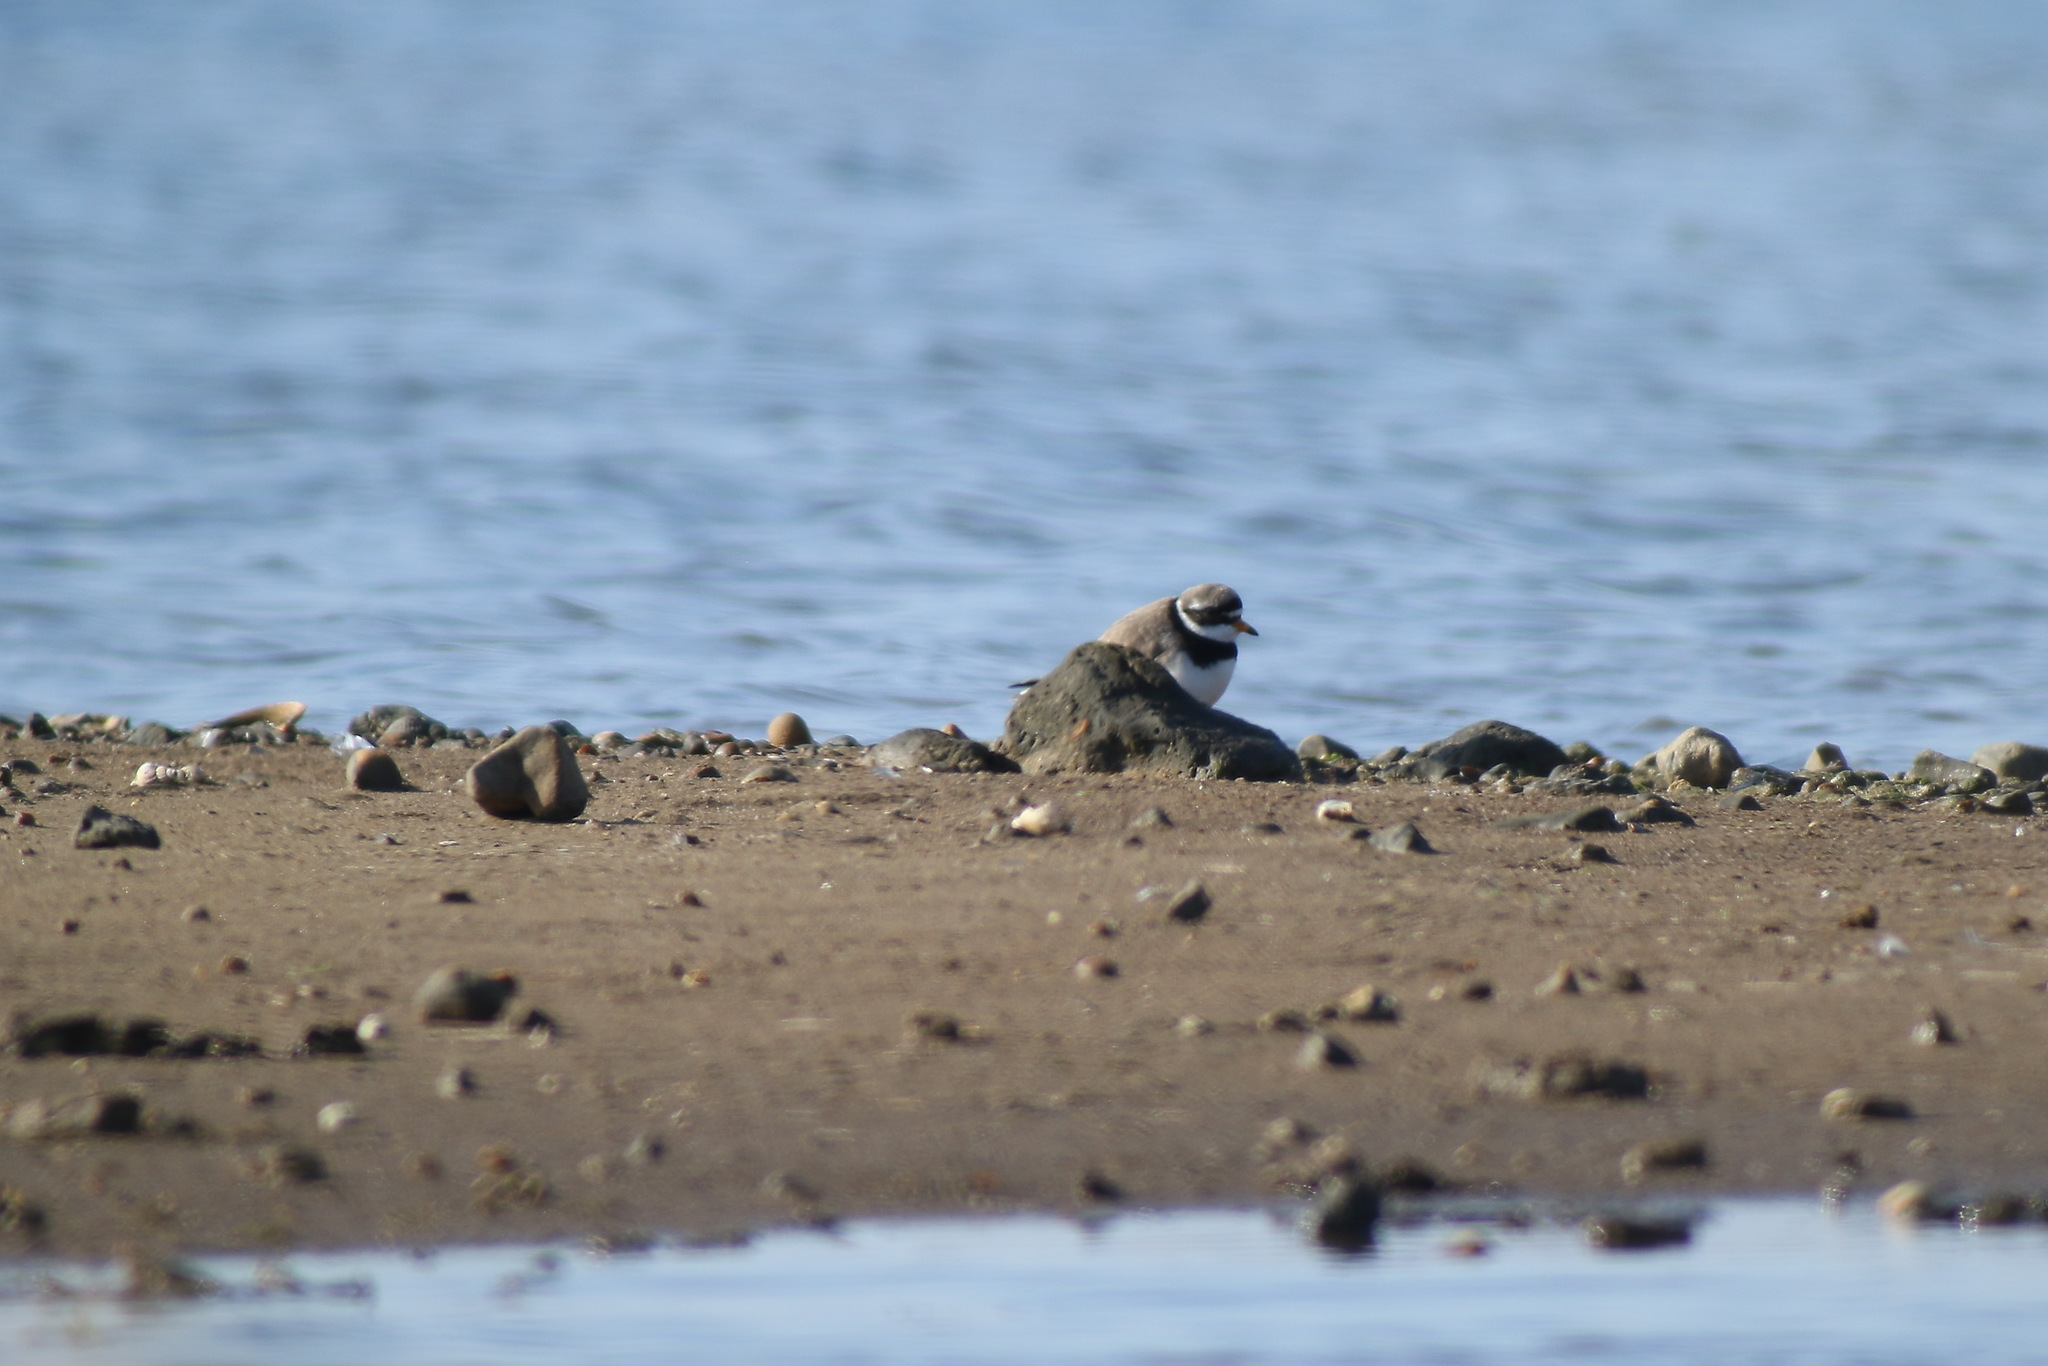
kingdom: Animalia
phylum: Chordata
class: Aves
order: Charadriiformes
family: Charadriidae
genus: Charadrius
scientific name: Charadrius hiaticula
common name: Common ringed plover
